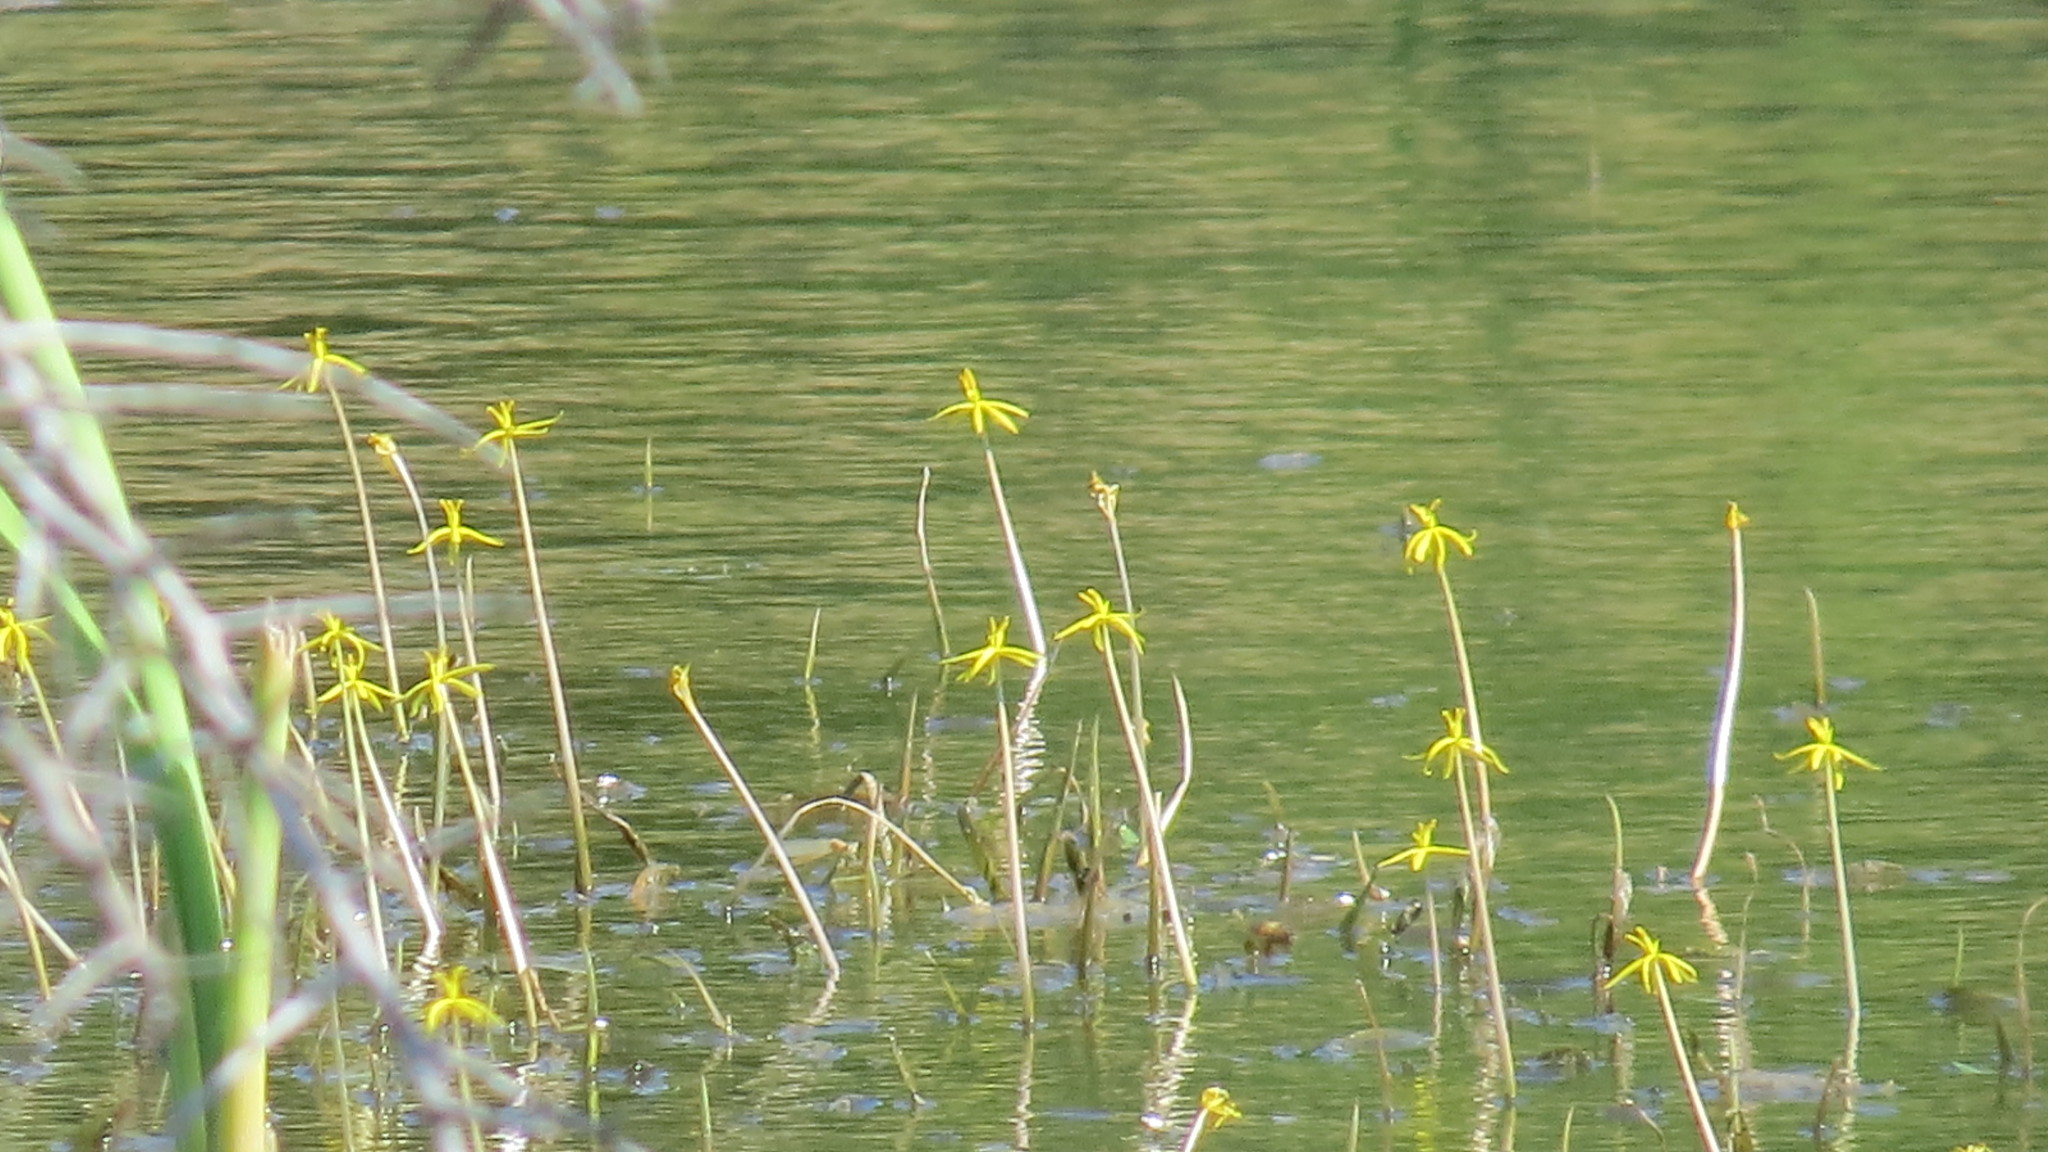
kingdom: Plantae
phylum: Tracheophyta
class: Liliopsida
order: Commelinales
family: Pontederiaceae
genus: Heteranthera
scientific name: Heteranthera dubia
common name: Grass-leaved mud plantain
